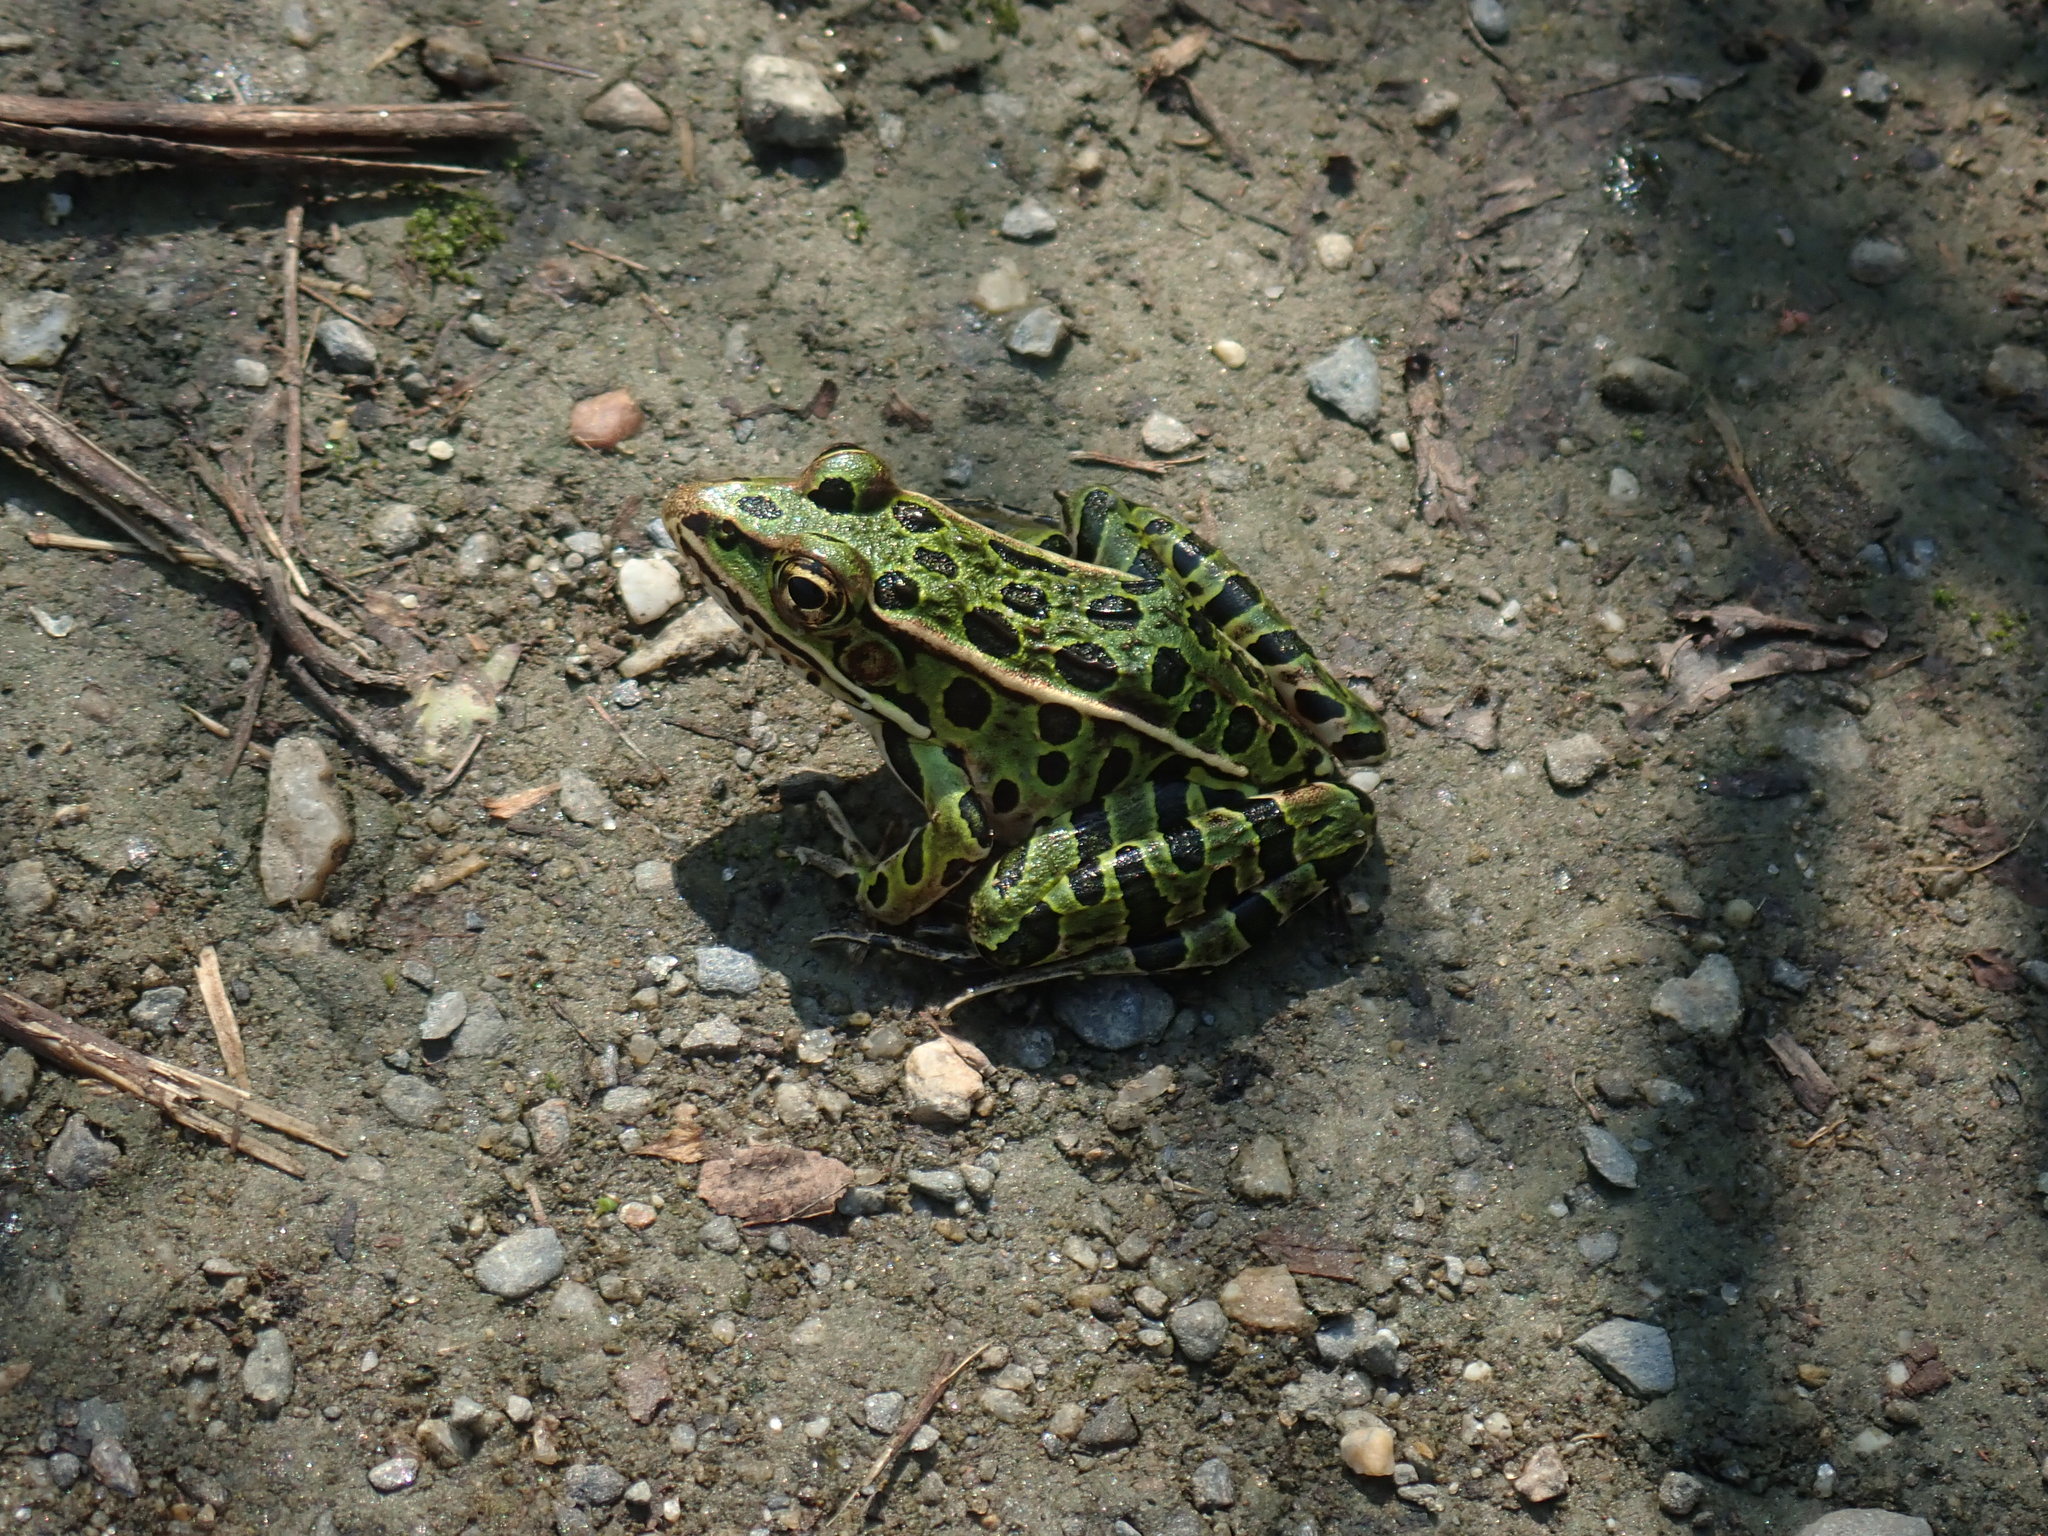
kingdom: Animalia
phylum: Chordata
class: Amphibia
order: Anura
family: Ranidae
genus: Lithobates
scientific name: Lithobates pipiens
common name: Northern leopard frog
